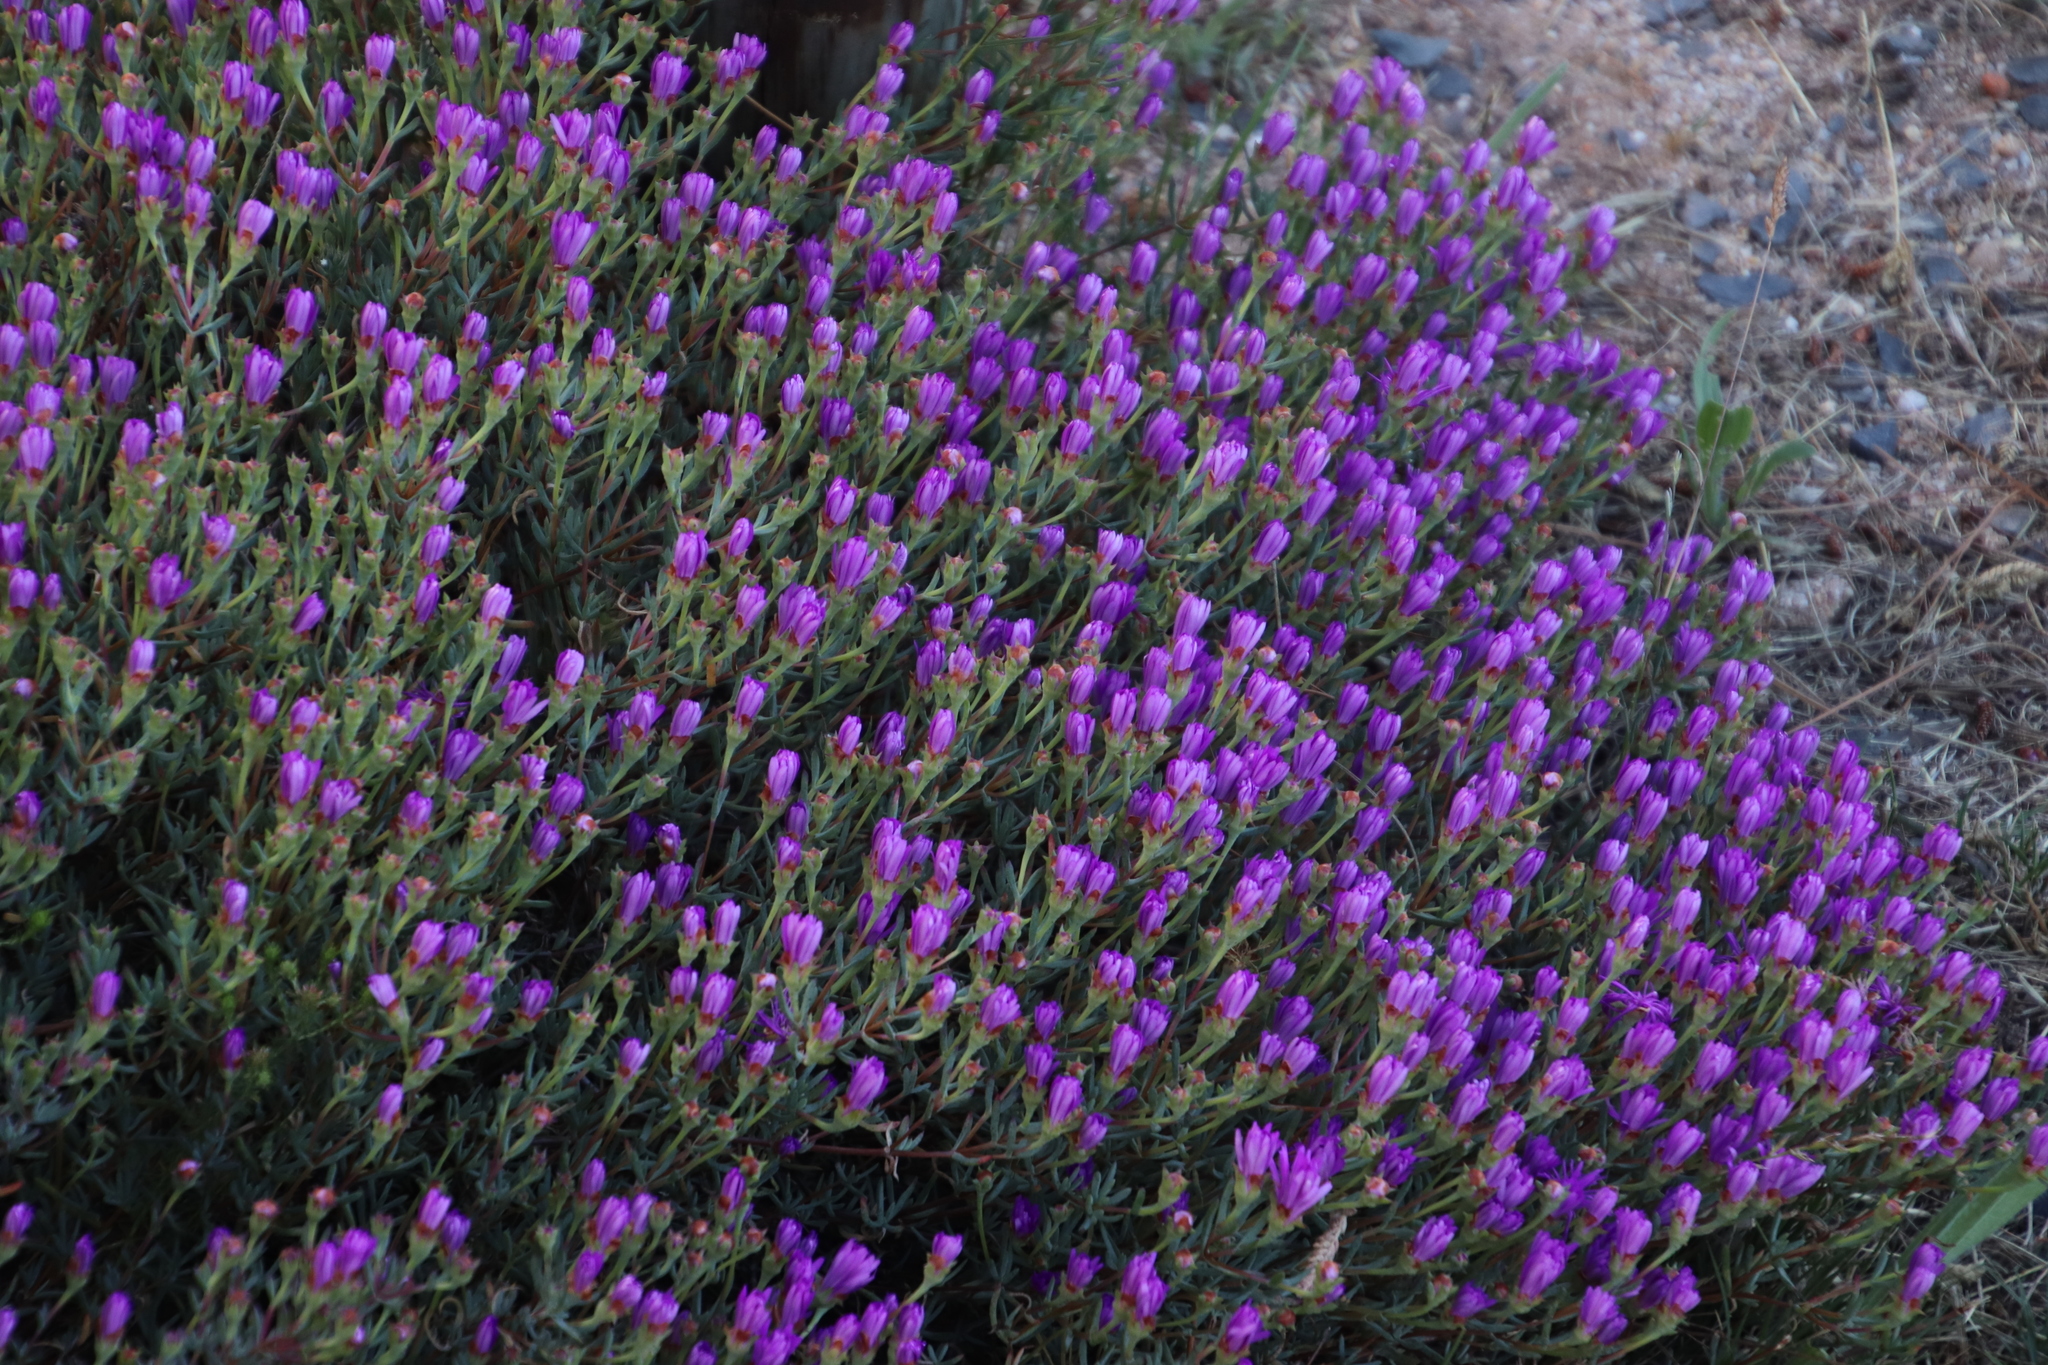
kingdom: Plantae
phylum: Tracheophyta
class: Magnoliopsida
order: Caryophyllales
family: Aizoaceae
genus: Lampranthus
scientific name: Lampranthus emarginatus
